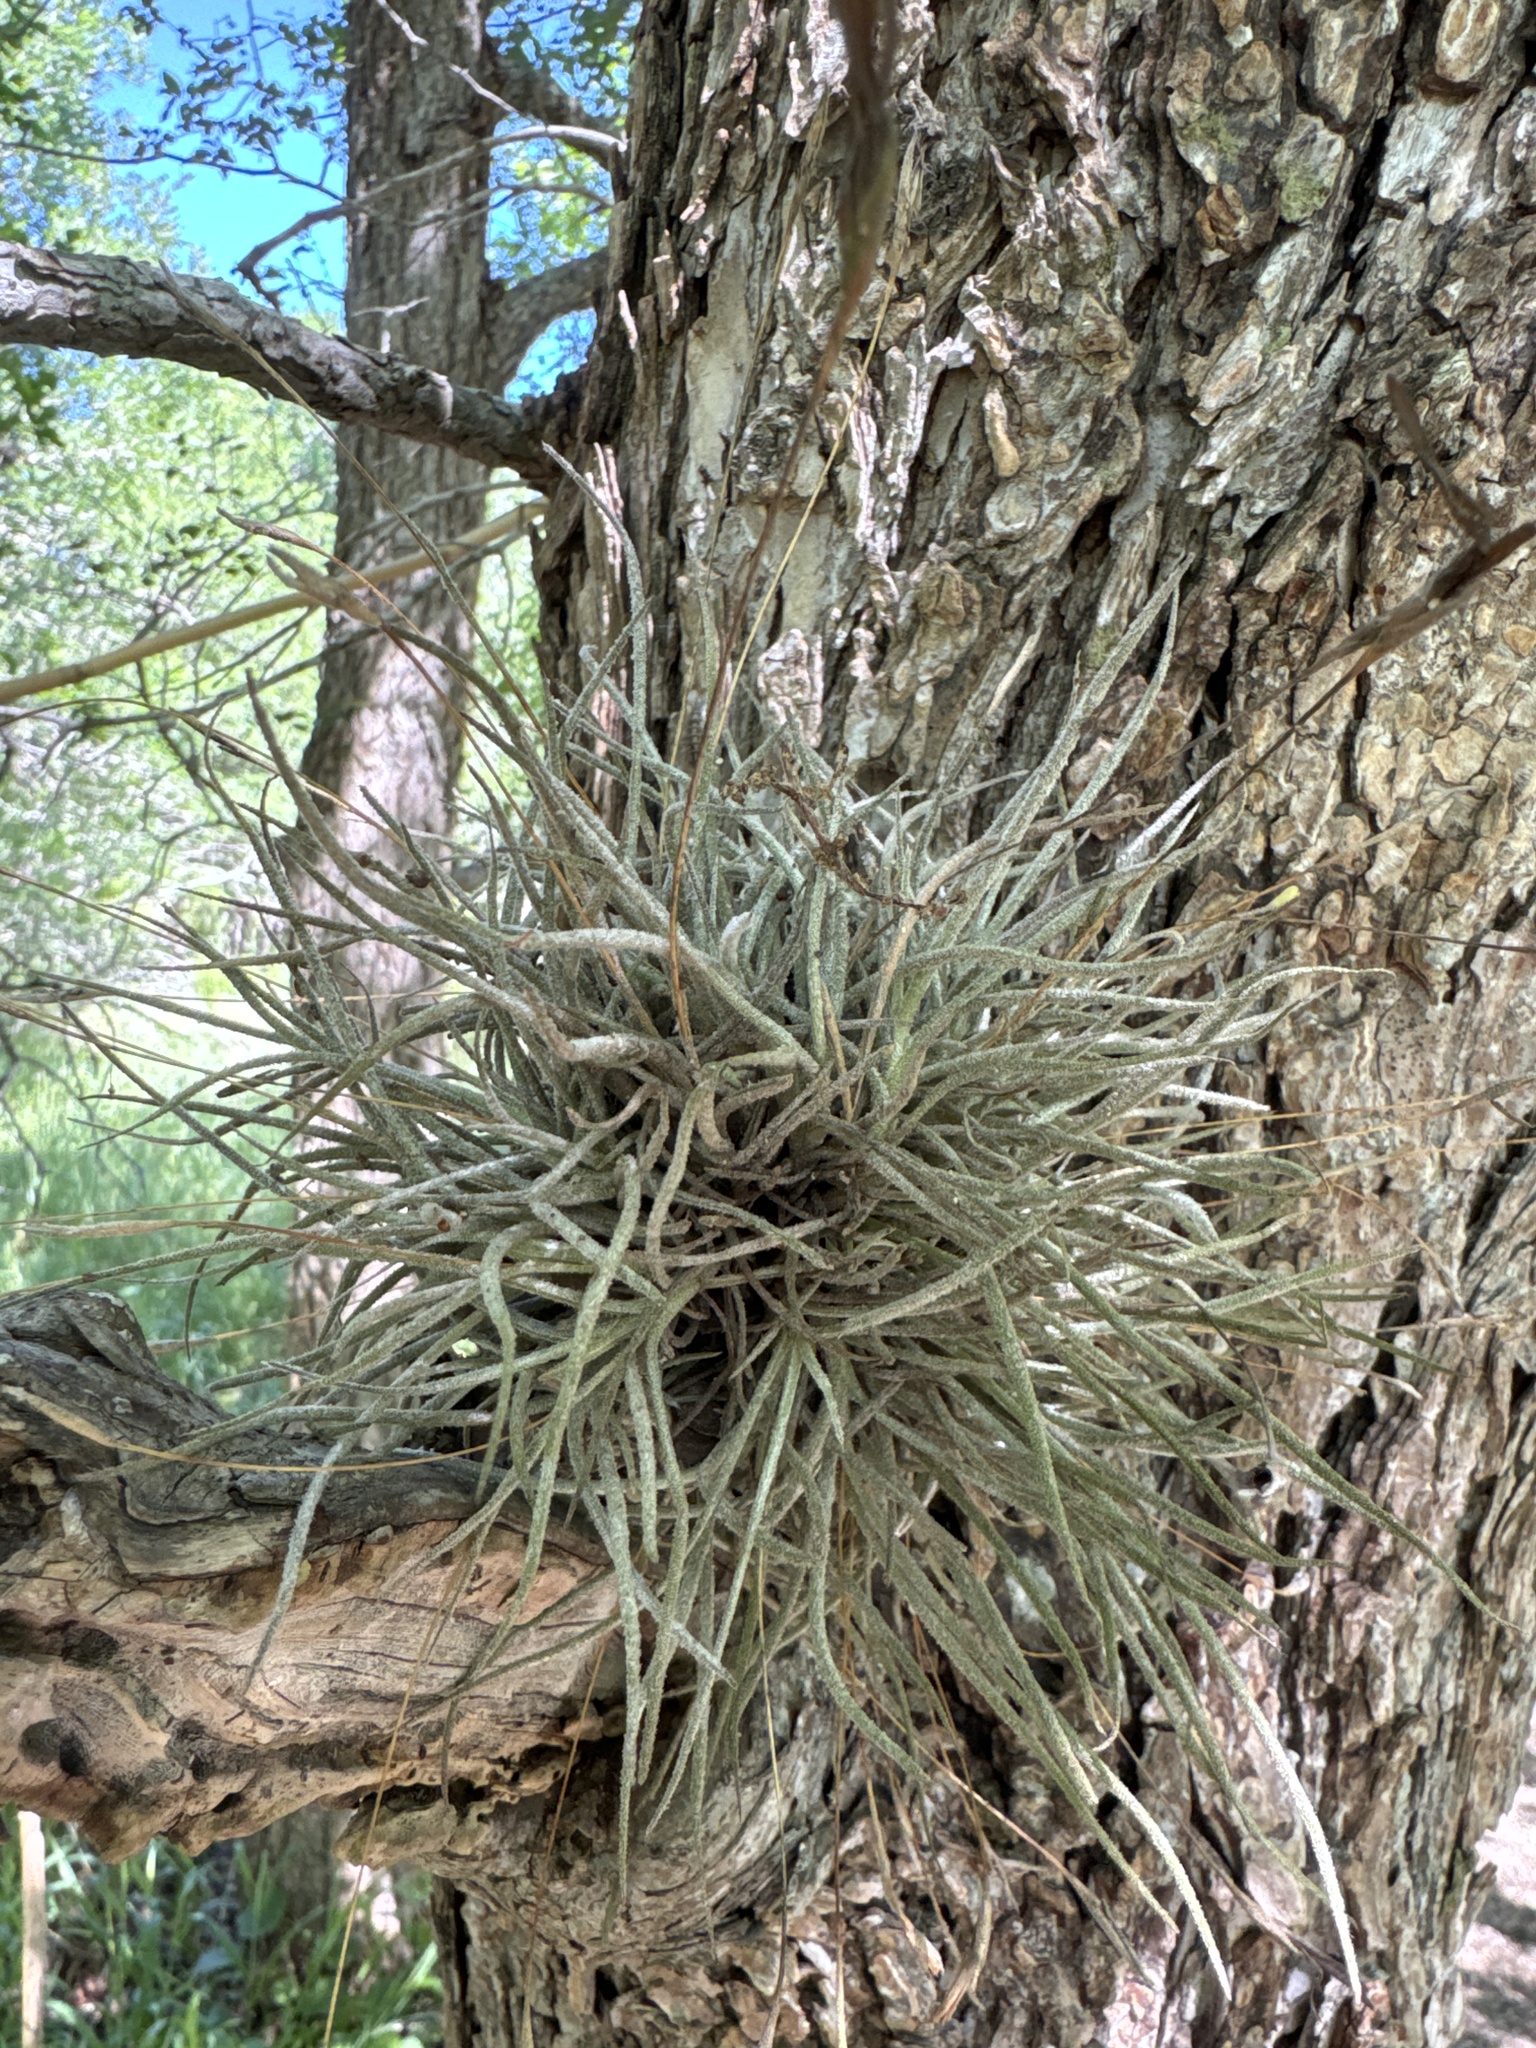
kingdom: Plantae
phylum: Tracheophyta
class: Liliopsida
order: Poales
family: Bromeliaceae
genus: Tillandsia
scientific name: Tillandsia recurvata
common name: Small ballmoss
